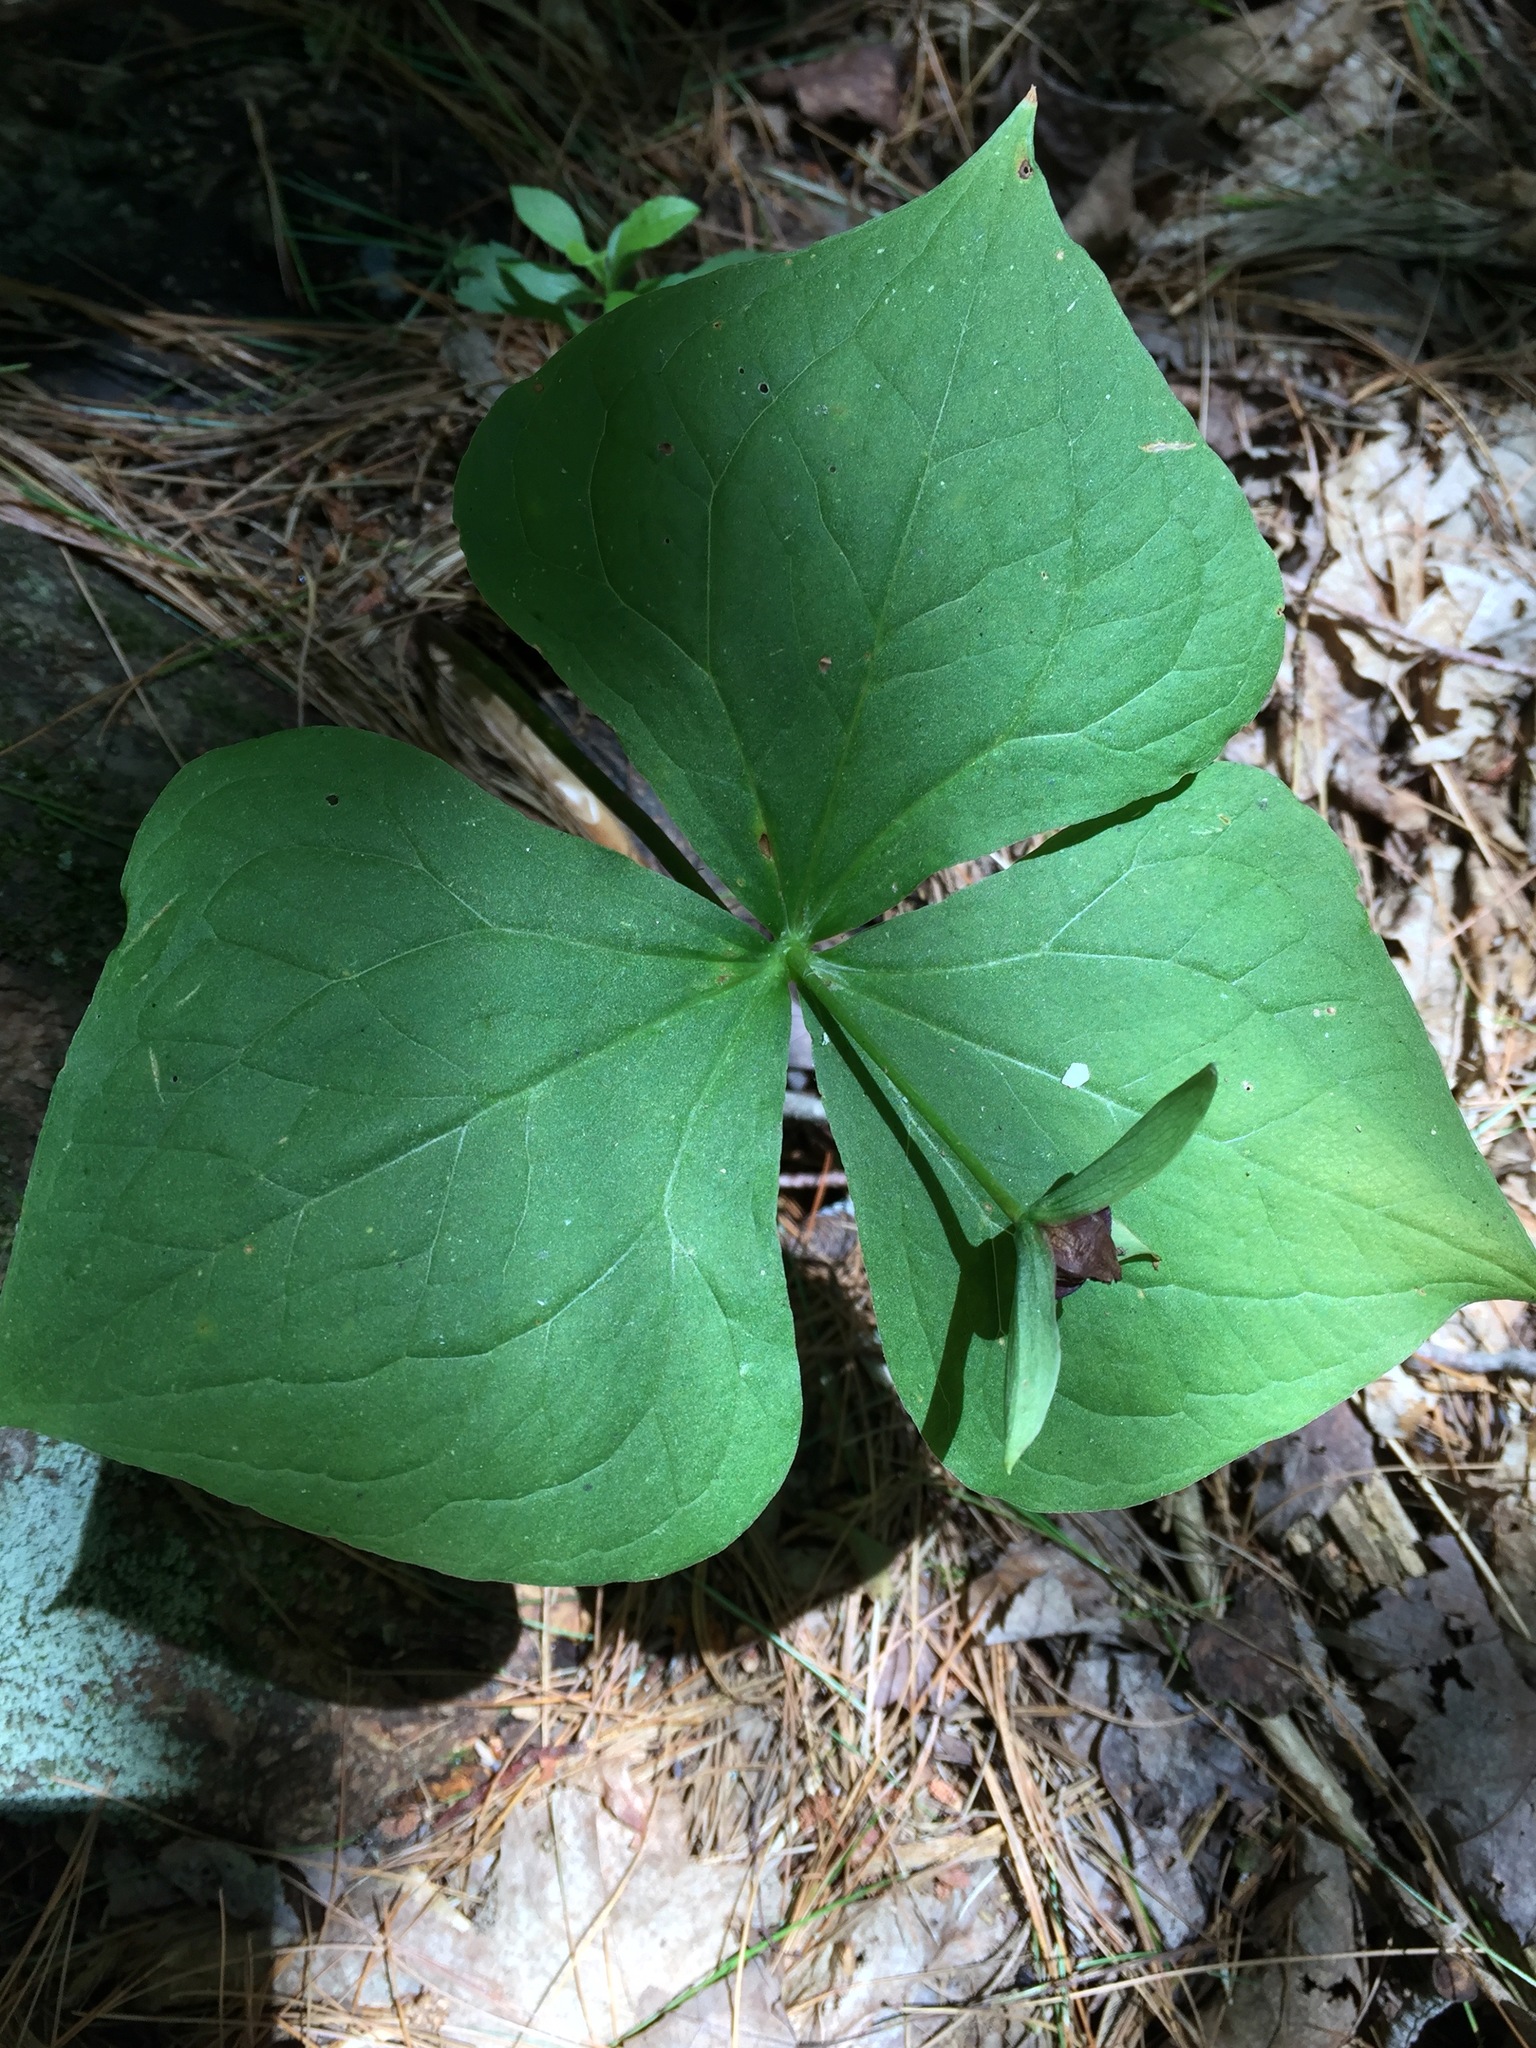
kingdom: Plantae
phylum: Tracheophyta
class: Liliopsida
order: Liliales
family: Melanthiaceae
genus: Trillium
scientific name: Trillium erectum
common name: Purple trillium
